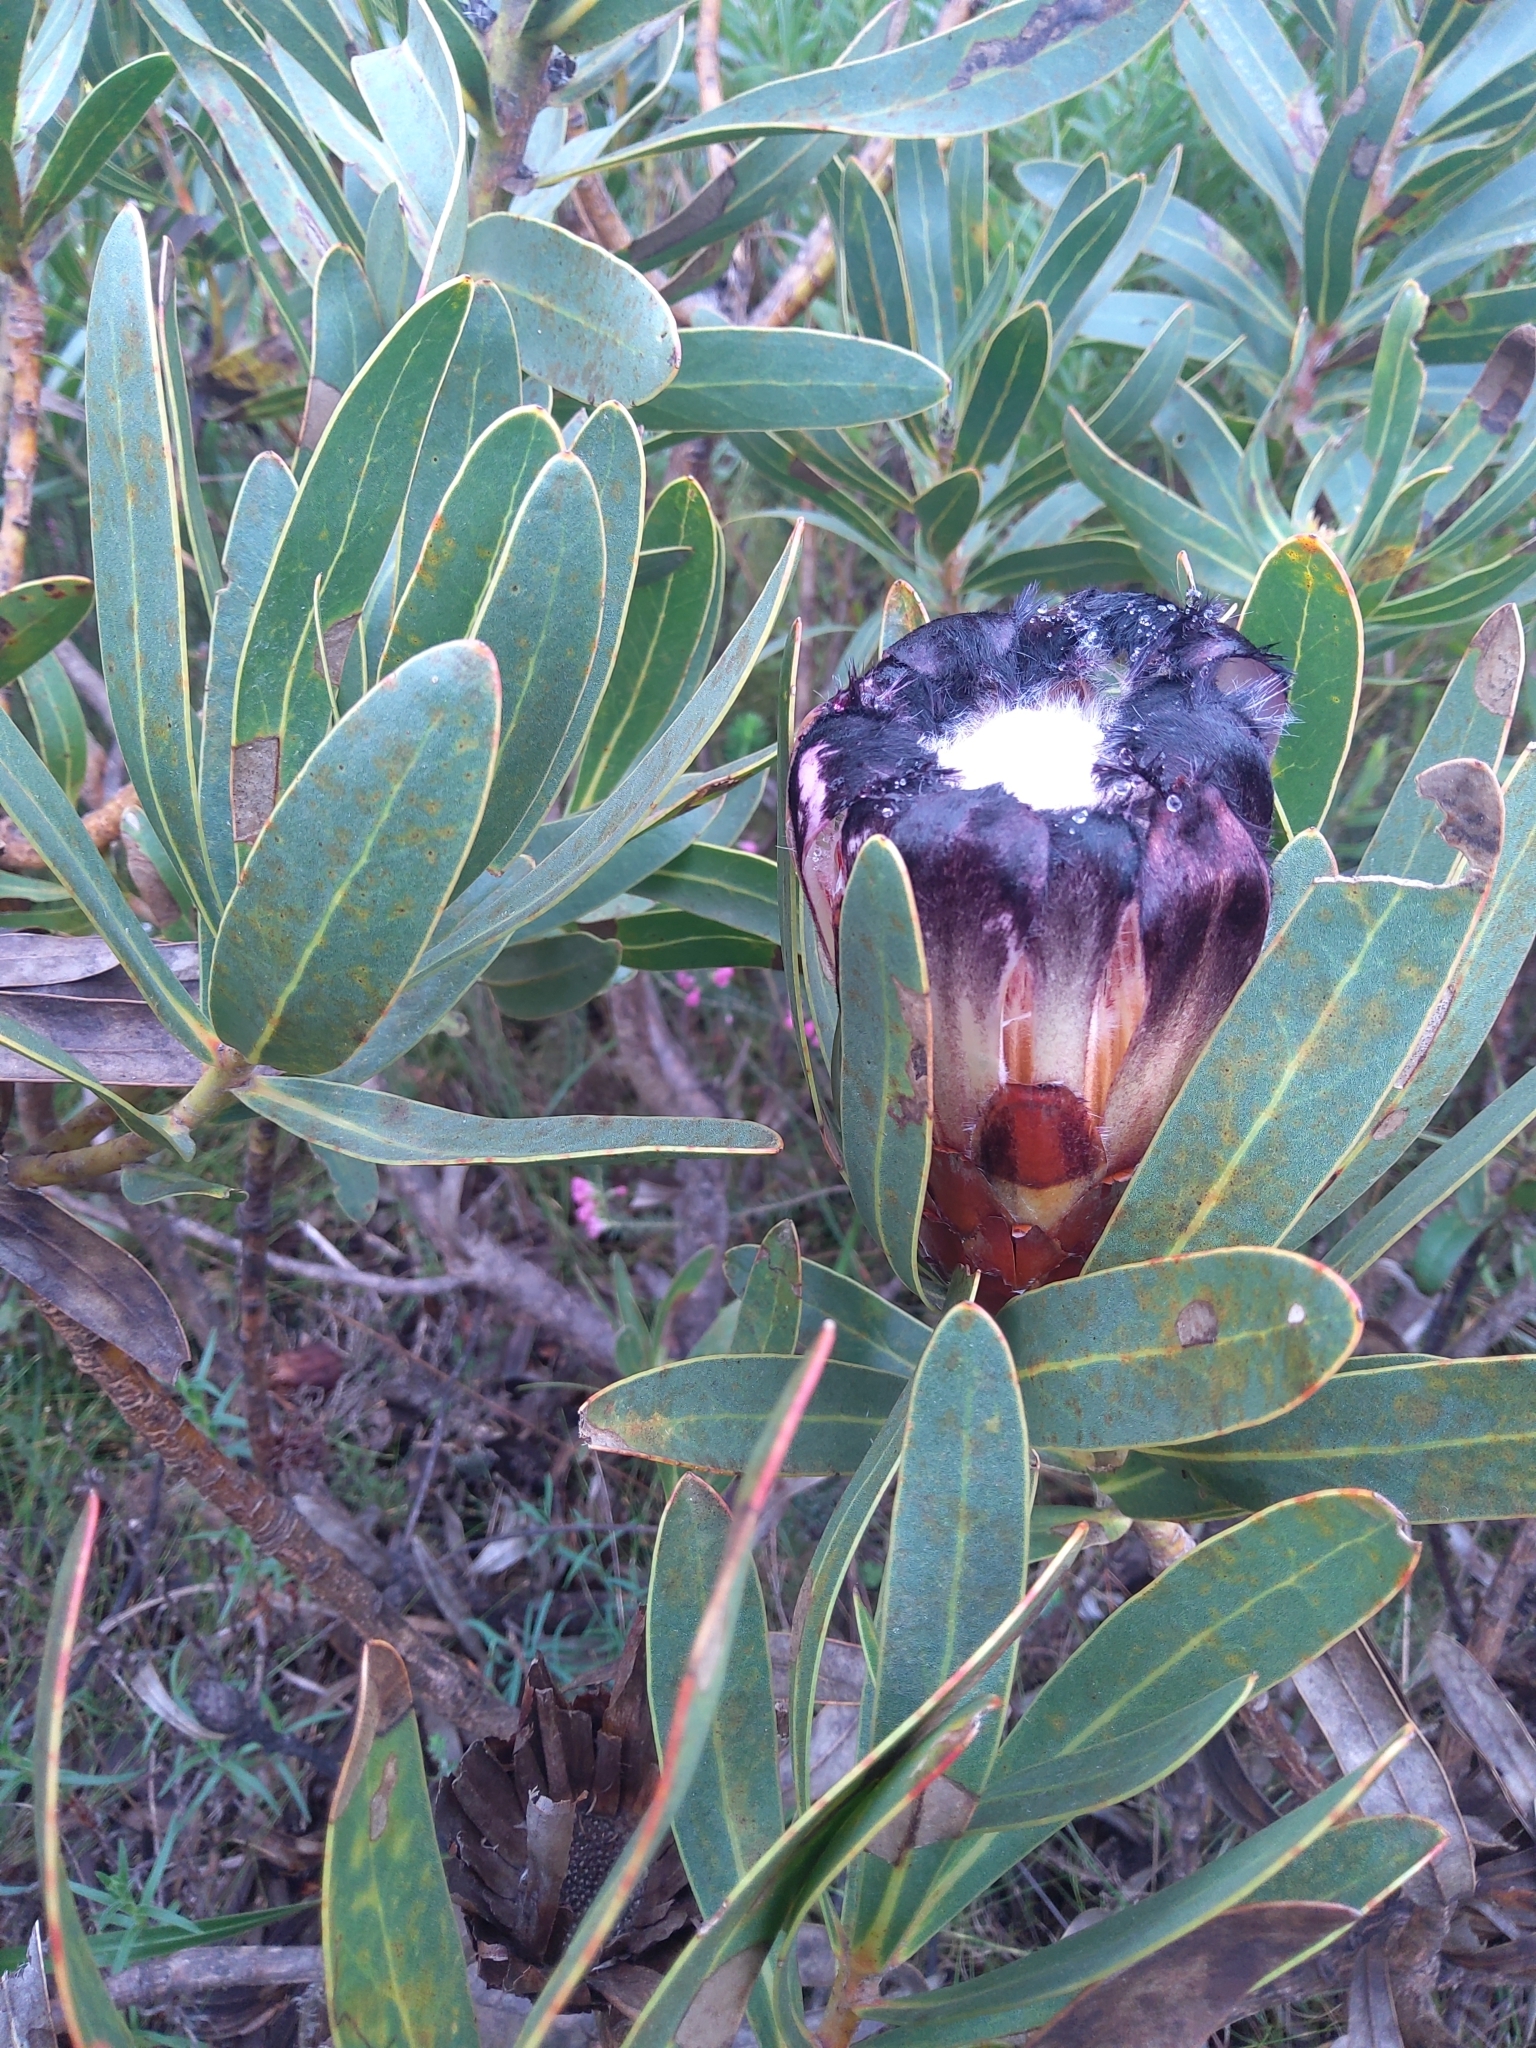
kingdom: Plantae
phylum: Tracheophyta
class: Magnoliopsida
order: Proteales
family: Proteaceae
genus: Protea
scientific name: Protea lepidocarpodendron
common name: Black-bearded protea
